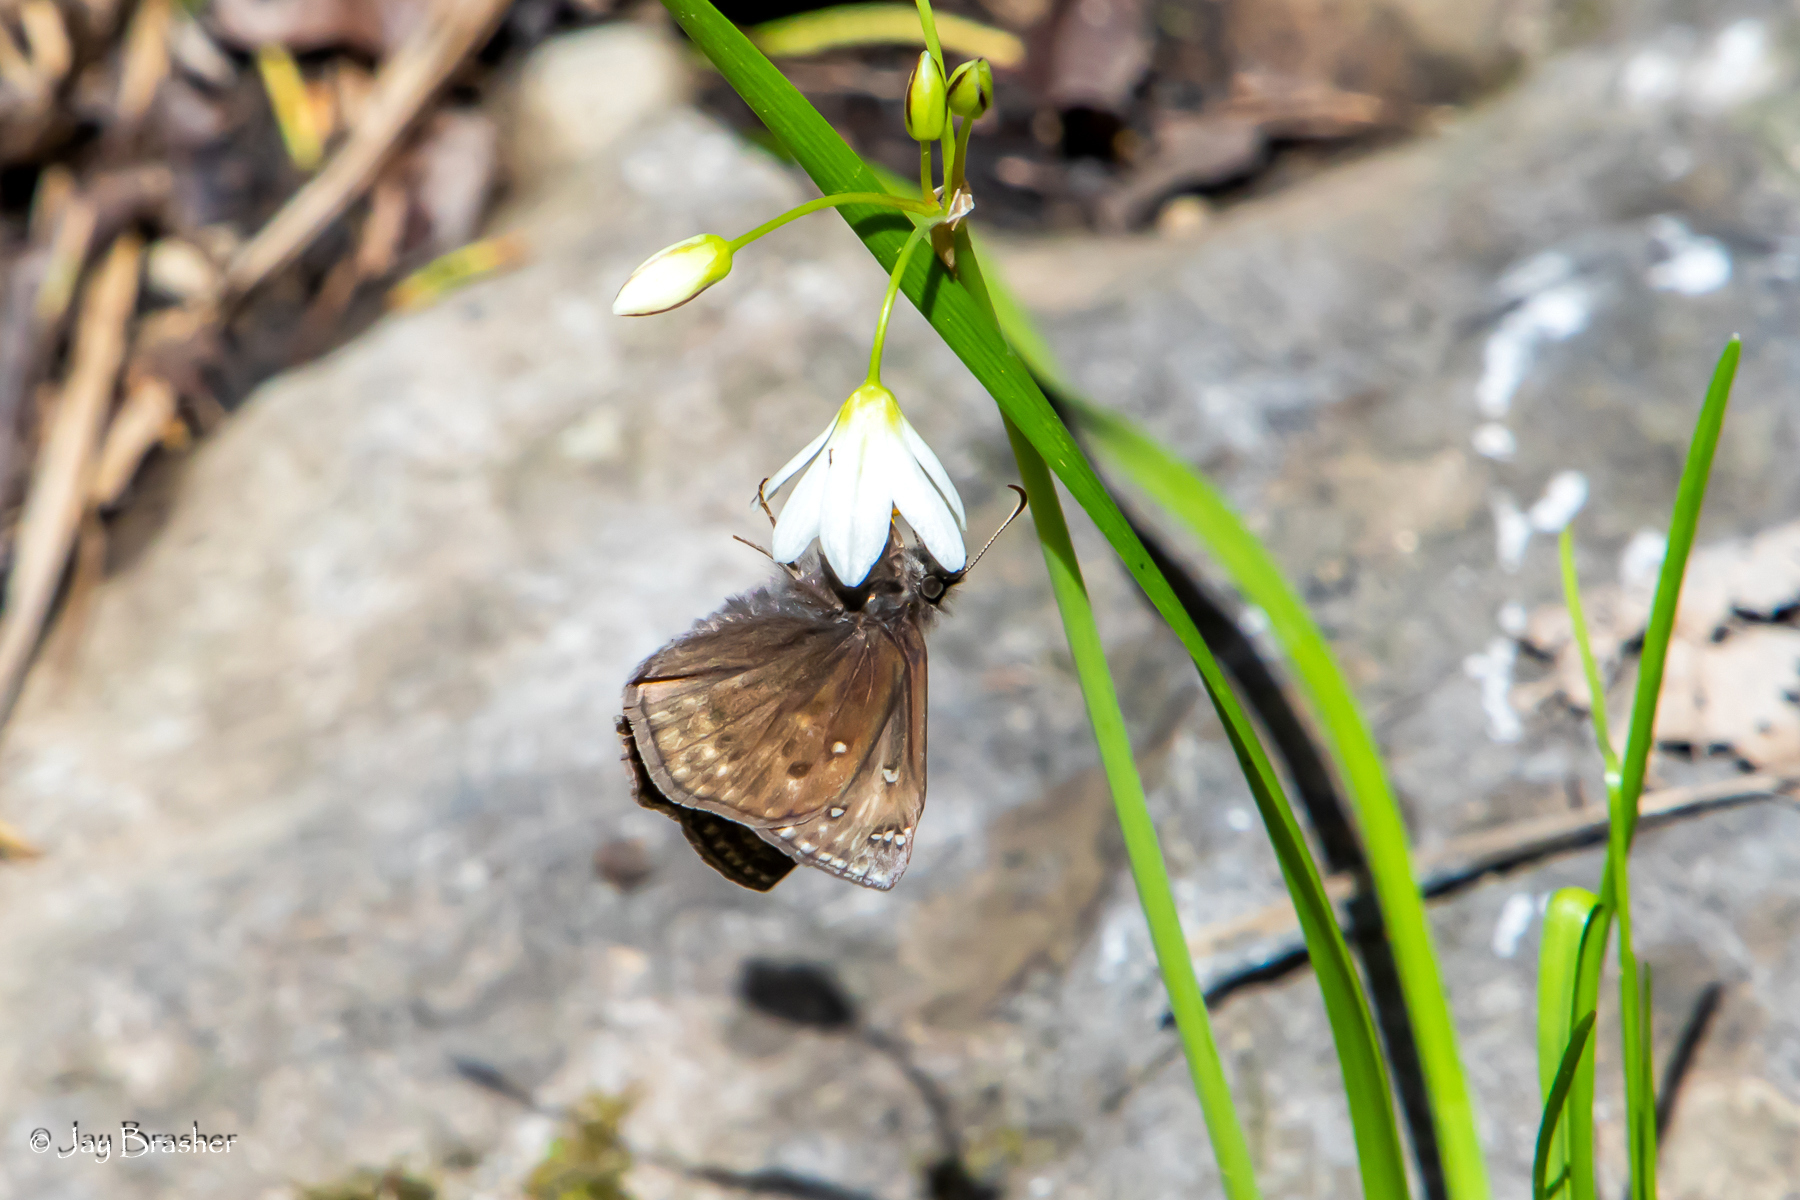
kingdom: Animalia
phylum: Arthropoda
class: Insecta
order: Lepidoptera
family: Hesperiidae
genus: Erynnis
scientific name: Erynnis juvenalis
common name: Juvenal's duskywing
